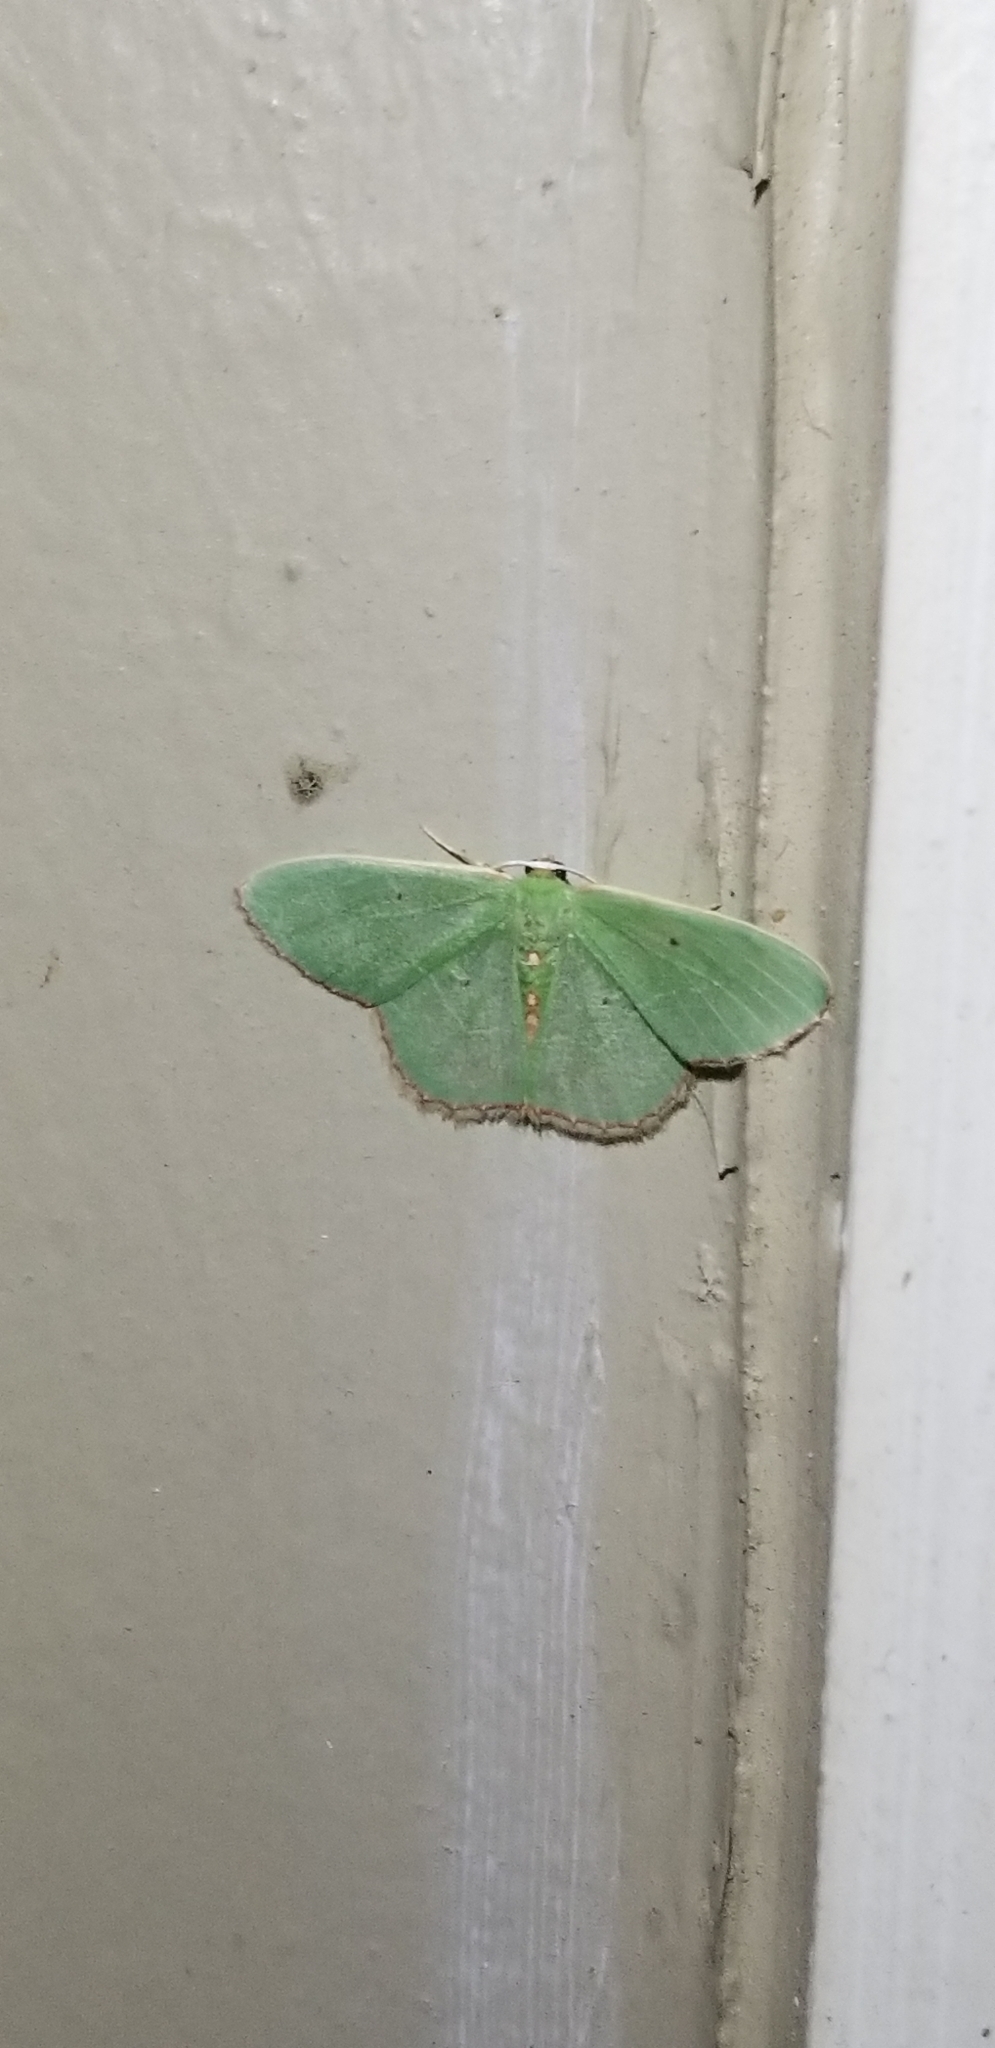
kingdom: Animalia
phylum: Arthropoda
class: Insecta
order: Lepidoptera
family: Geometridae
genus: Nemoria
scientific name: Nemoria lixaria
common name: Red-bordered emerald
